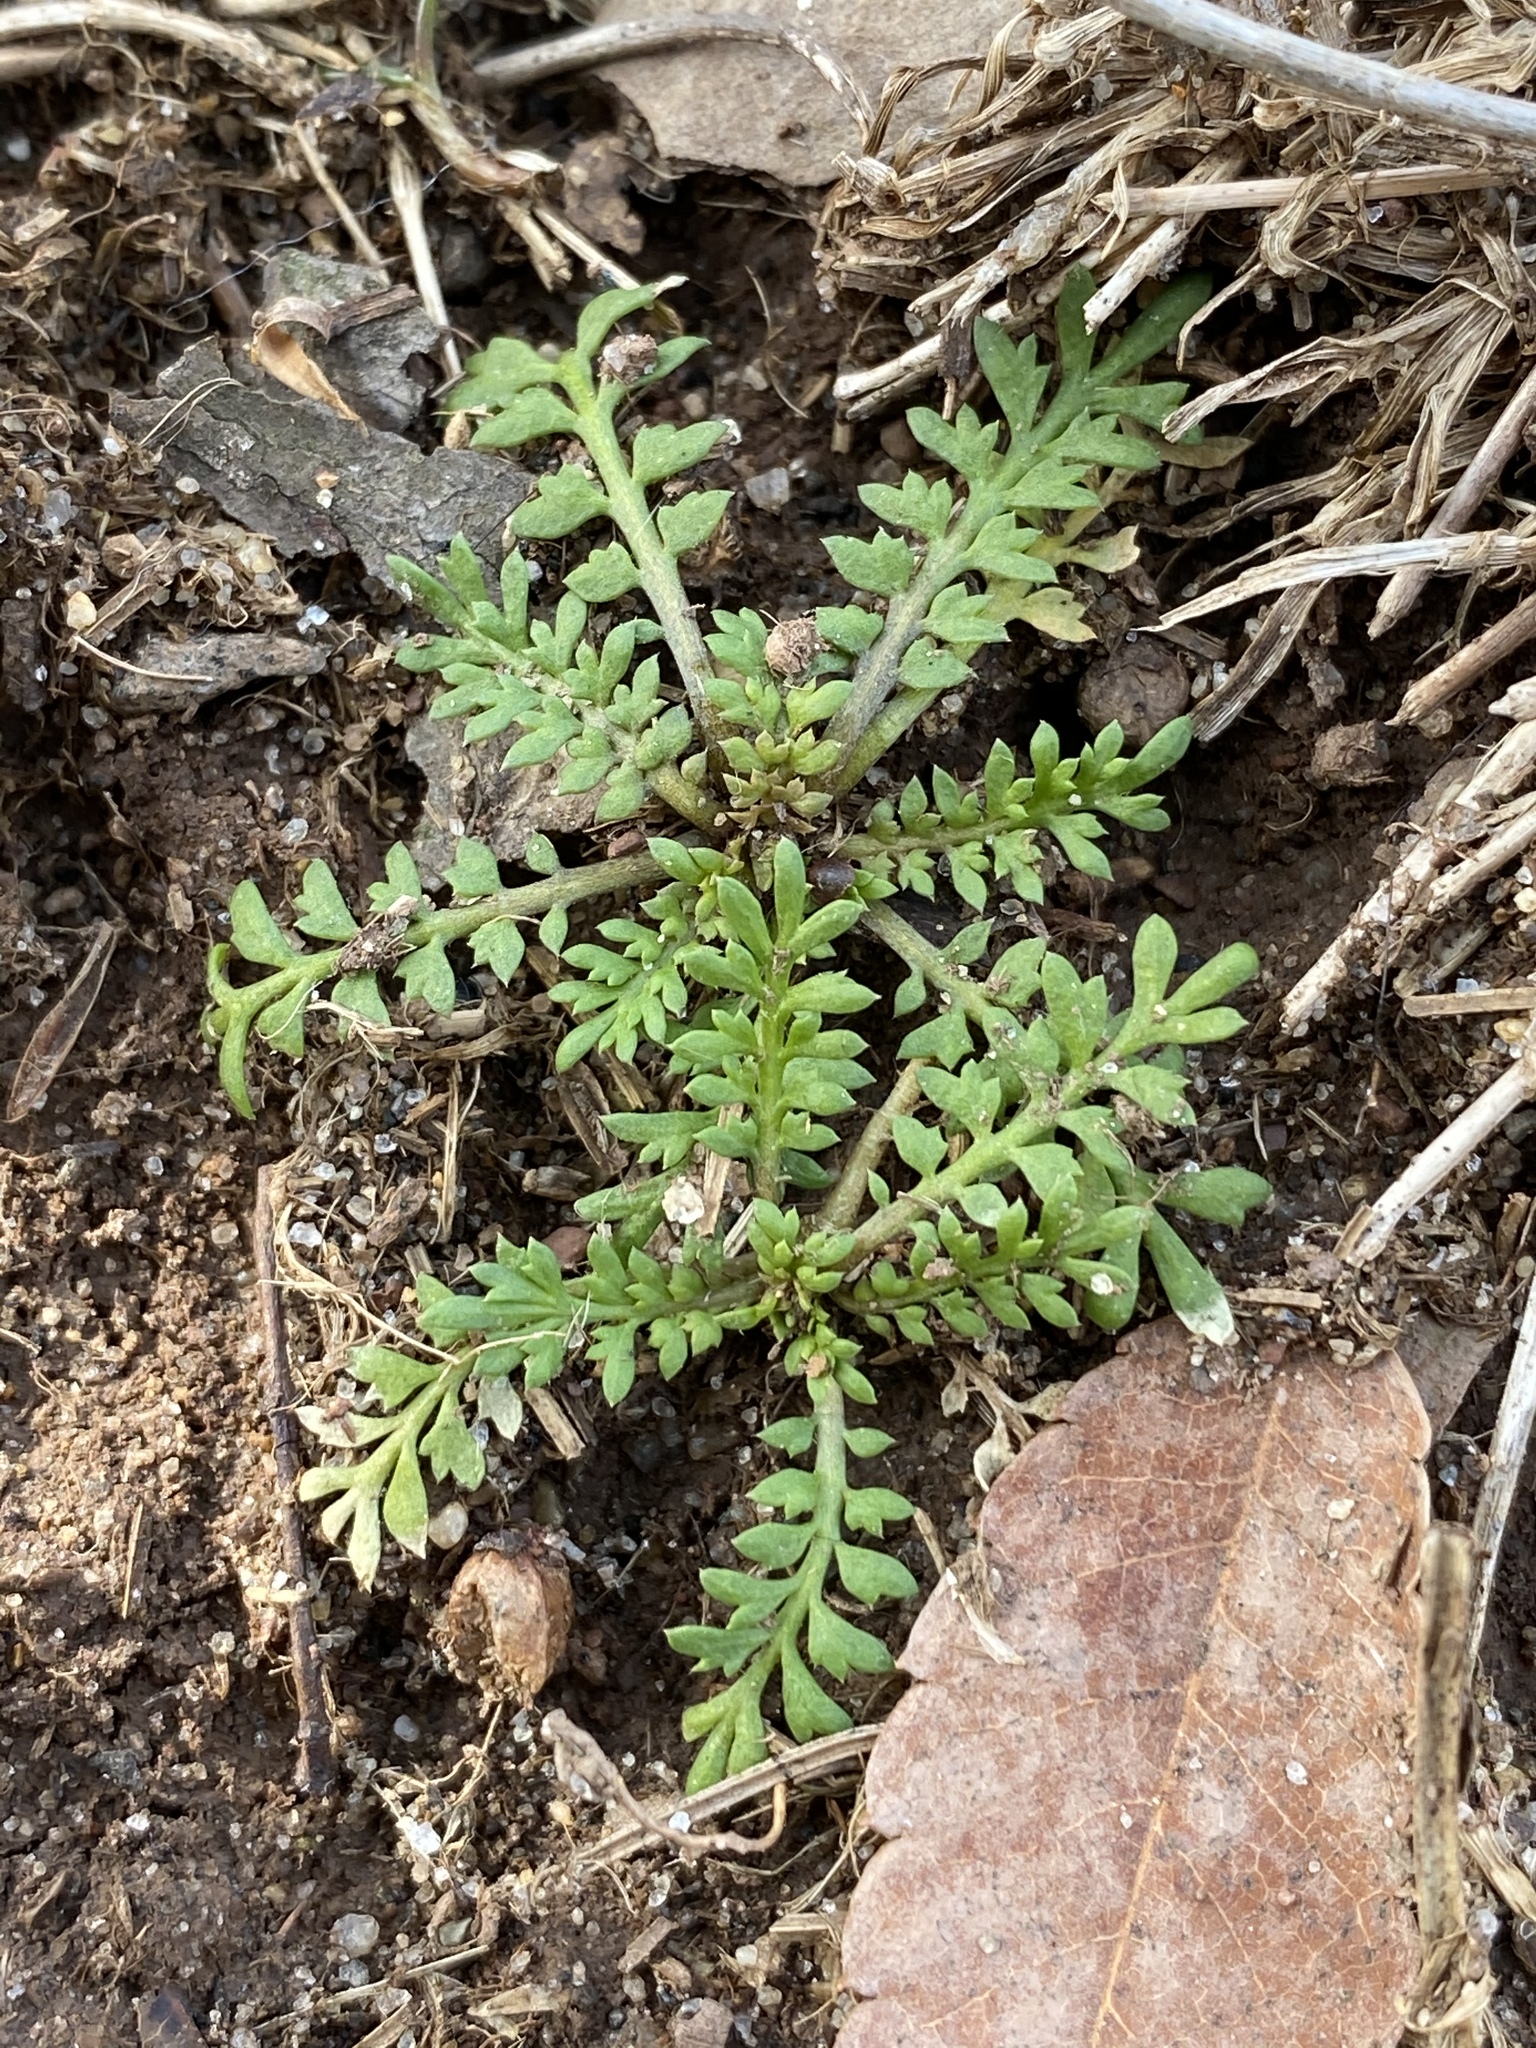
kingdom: Plantae
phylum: Tracheophyta
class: Magnoliopsida
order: Brassicales
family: Brassicaceae
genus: Lepidium
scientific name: Lepidium didymum
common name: Lesser swinecress
